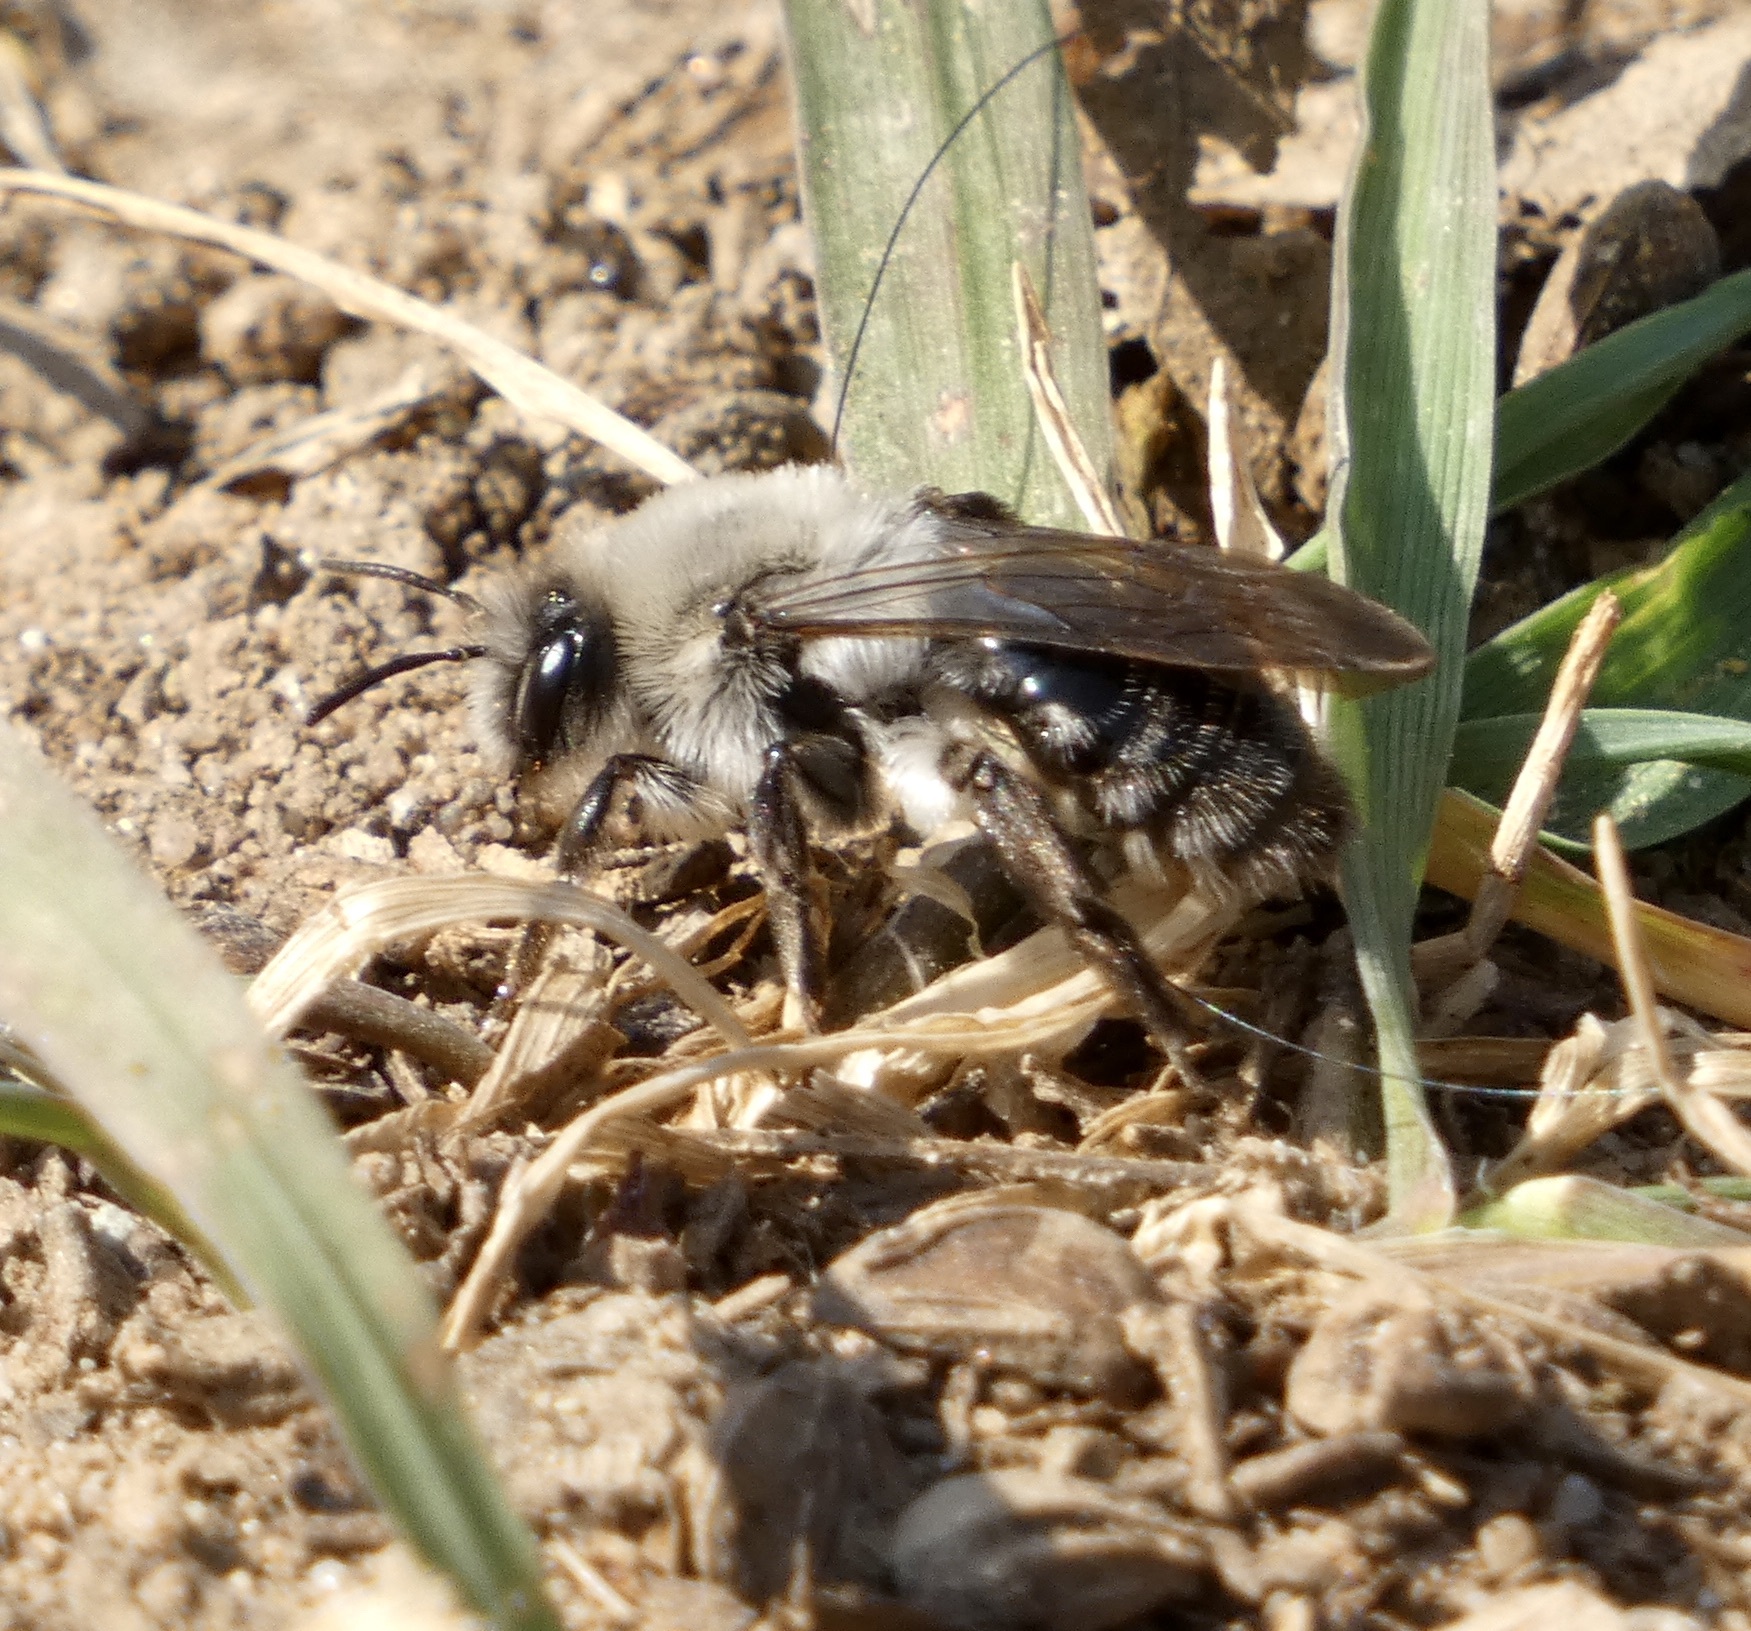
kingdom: Animalia
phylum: Arthropoda
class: Insecta
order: Hymenoptera
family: Andrenidae
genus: Andrena
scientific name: Andrena vaga
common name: Grey-backed mining bee
